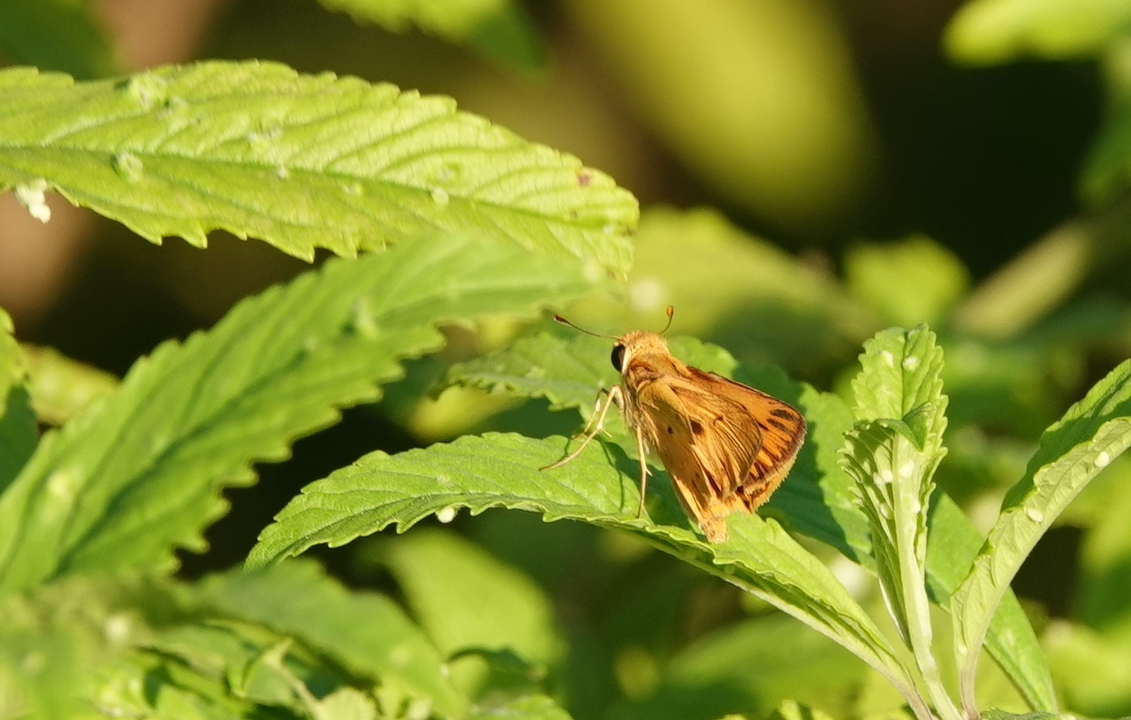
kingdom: Animalia
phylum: Arthropoda
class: Insecta
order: Lepidoptera
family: Hesperiidae
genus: Hylephila
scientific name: Hylephila phyleus
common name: Fiery skipper
